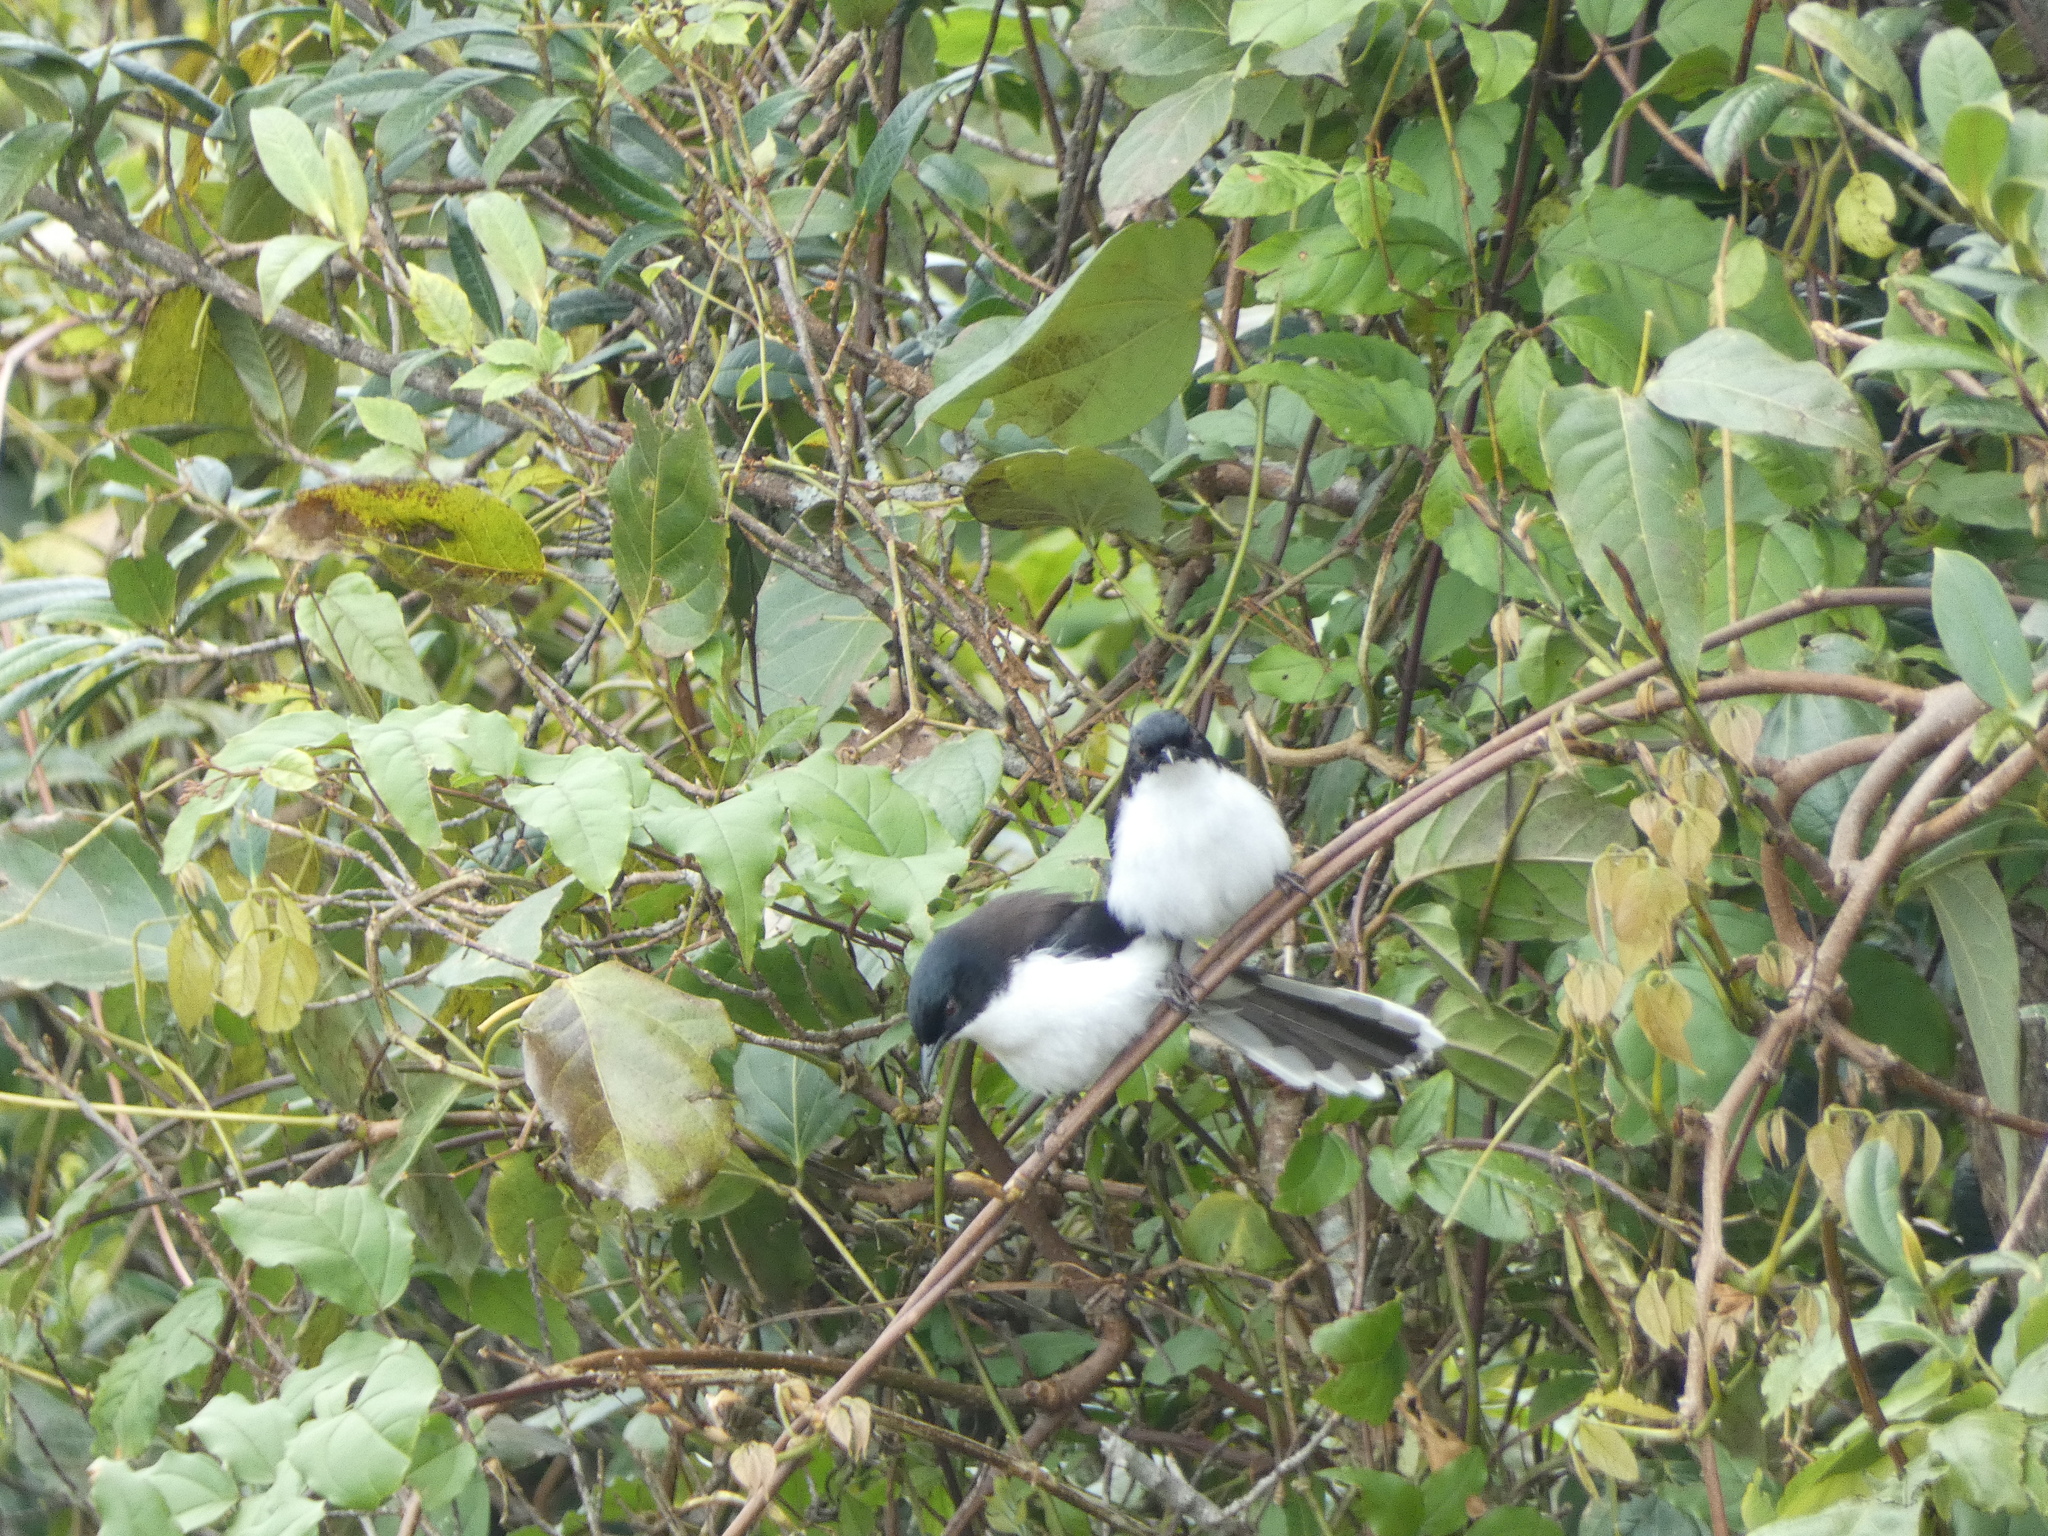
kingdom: Animalia
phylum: Chordata
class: Aves
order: Passeriformes
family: Leiothrichidae
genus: Heterophasia
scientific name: Heterophasia melanoleuca
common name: Dark-backed sibia
